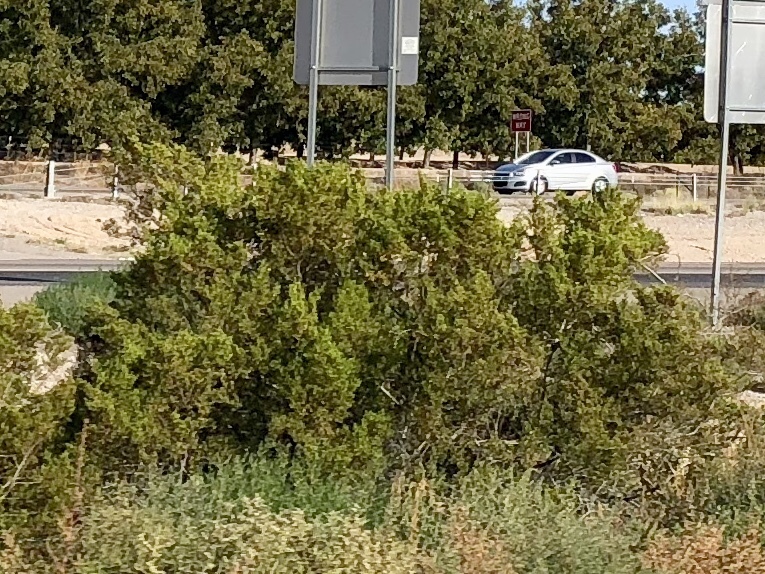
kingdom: Plantae
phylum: Tracheophyta
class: Magnoliopsida
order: Zygophyllales
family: Zygophyllaceae
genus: Larrea
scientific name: Larrea tridentata
